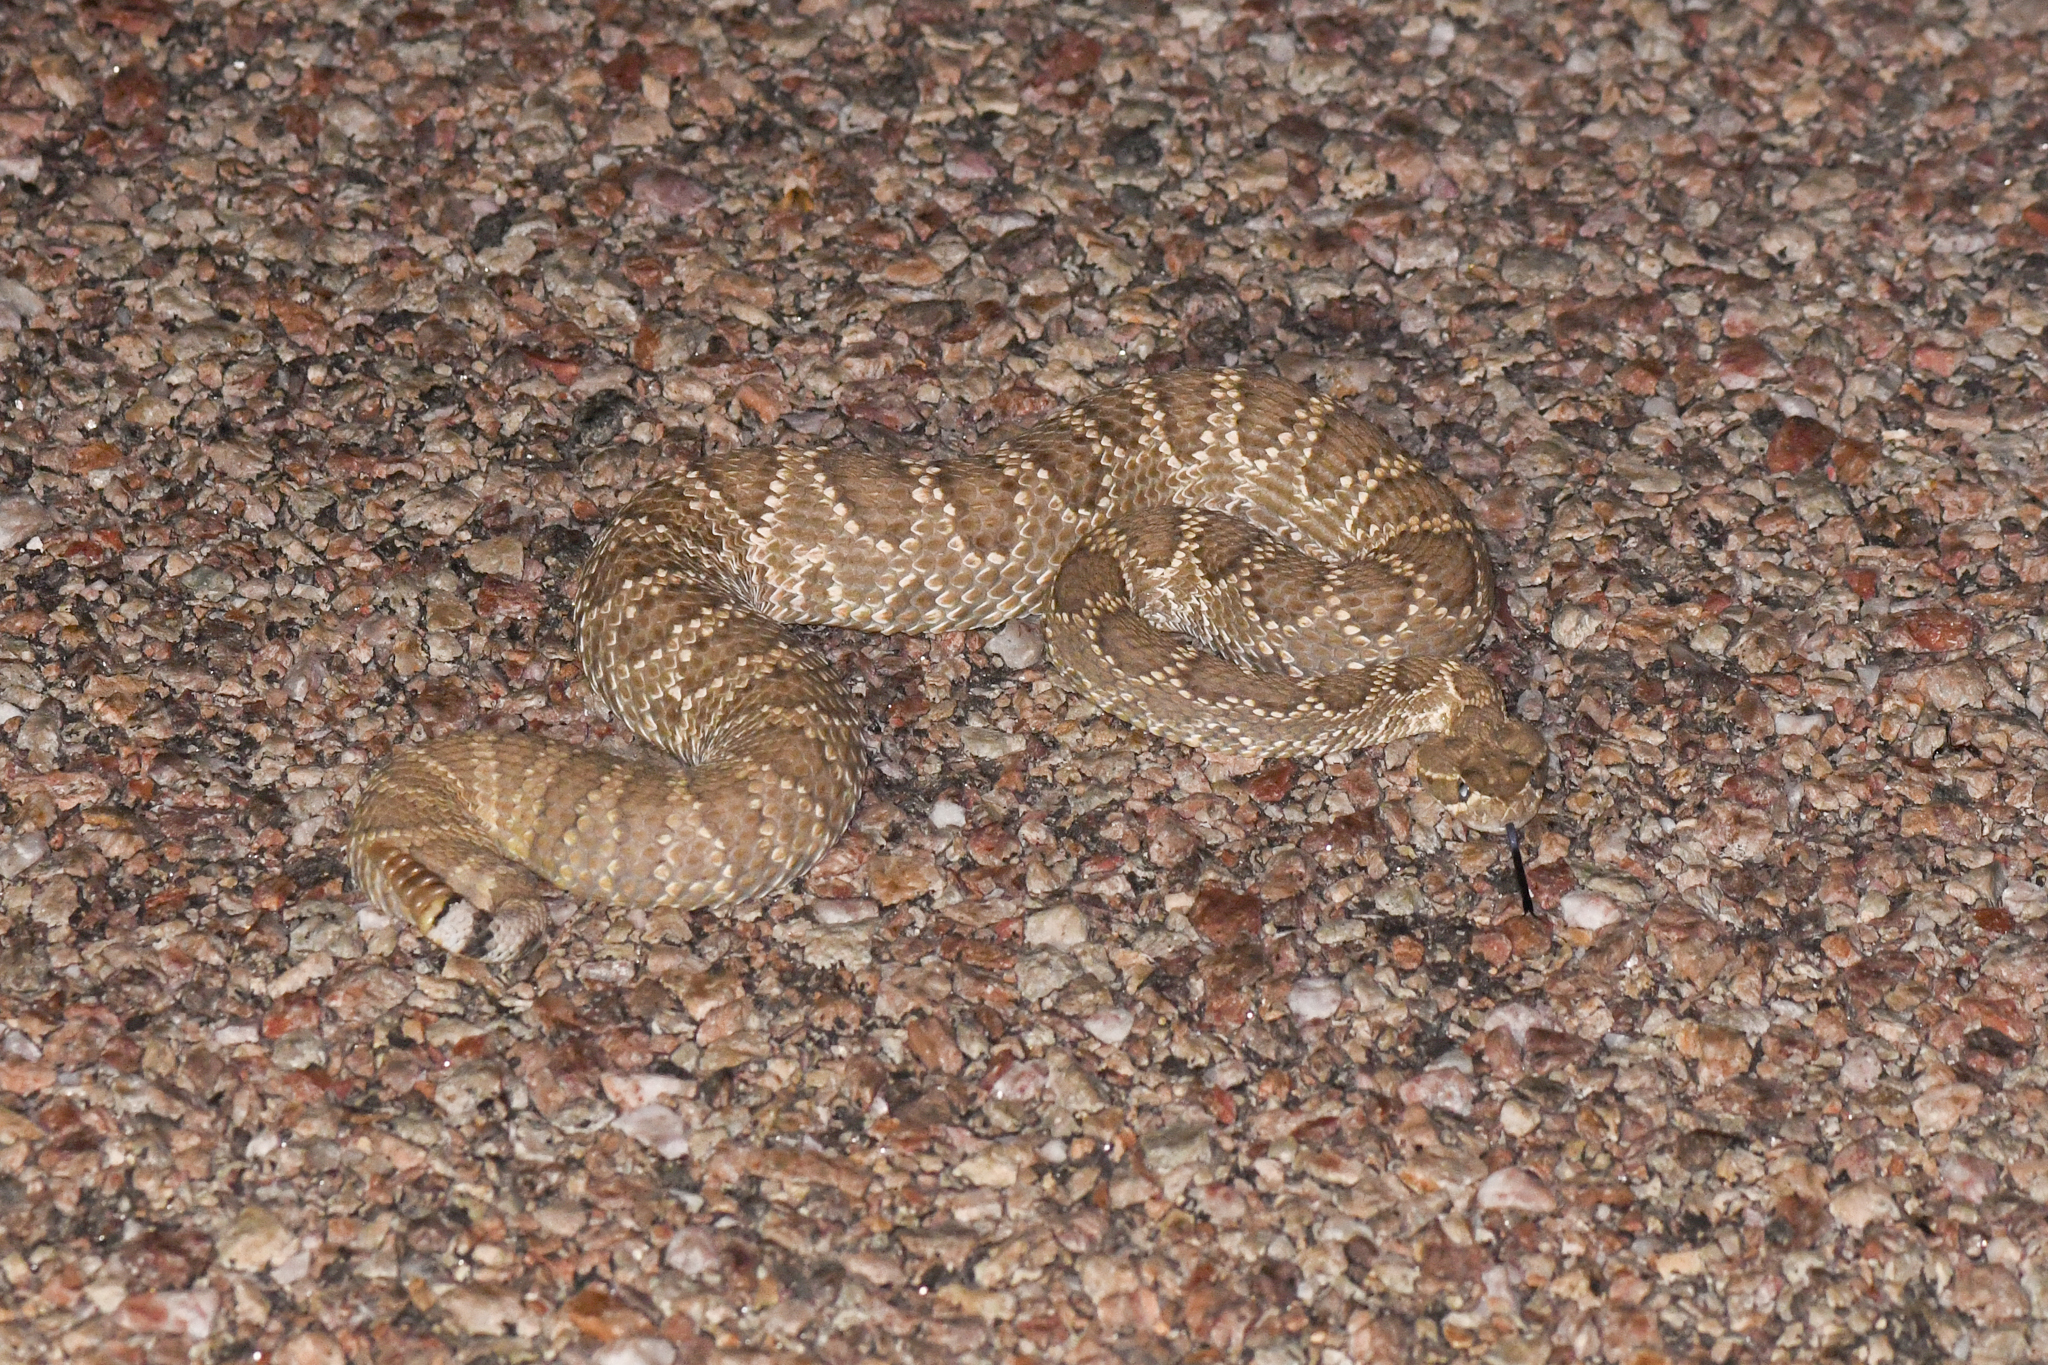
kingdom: Animalia
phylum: Chordata
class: Squamata
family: Viperidae
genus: Crotalus
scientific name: Crotalus scutulatus
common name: Scutulatus
